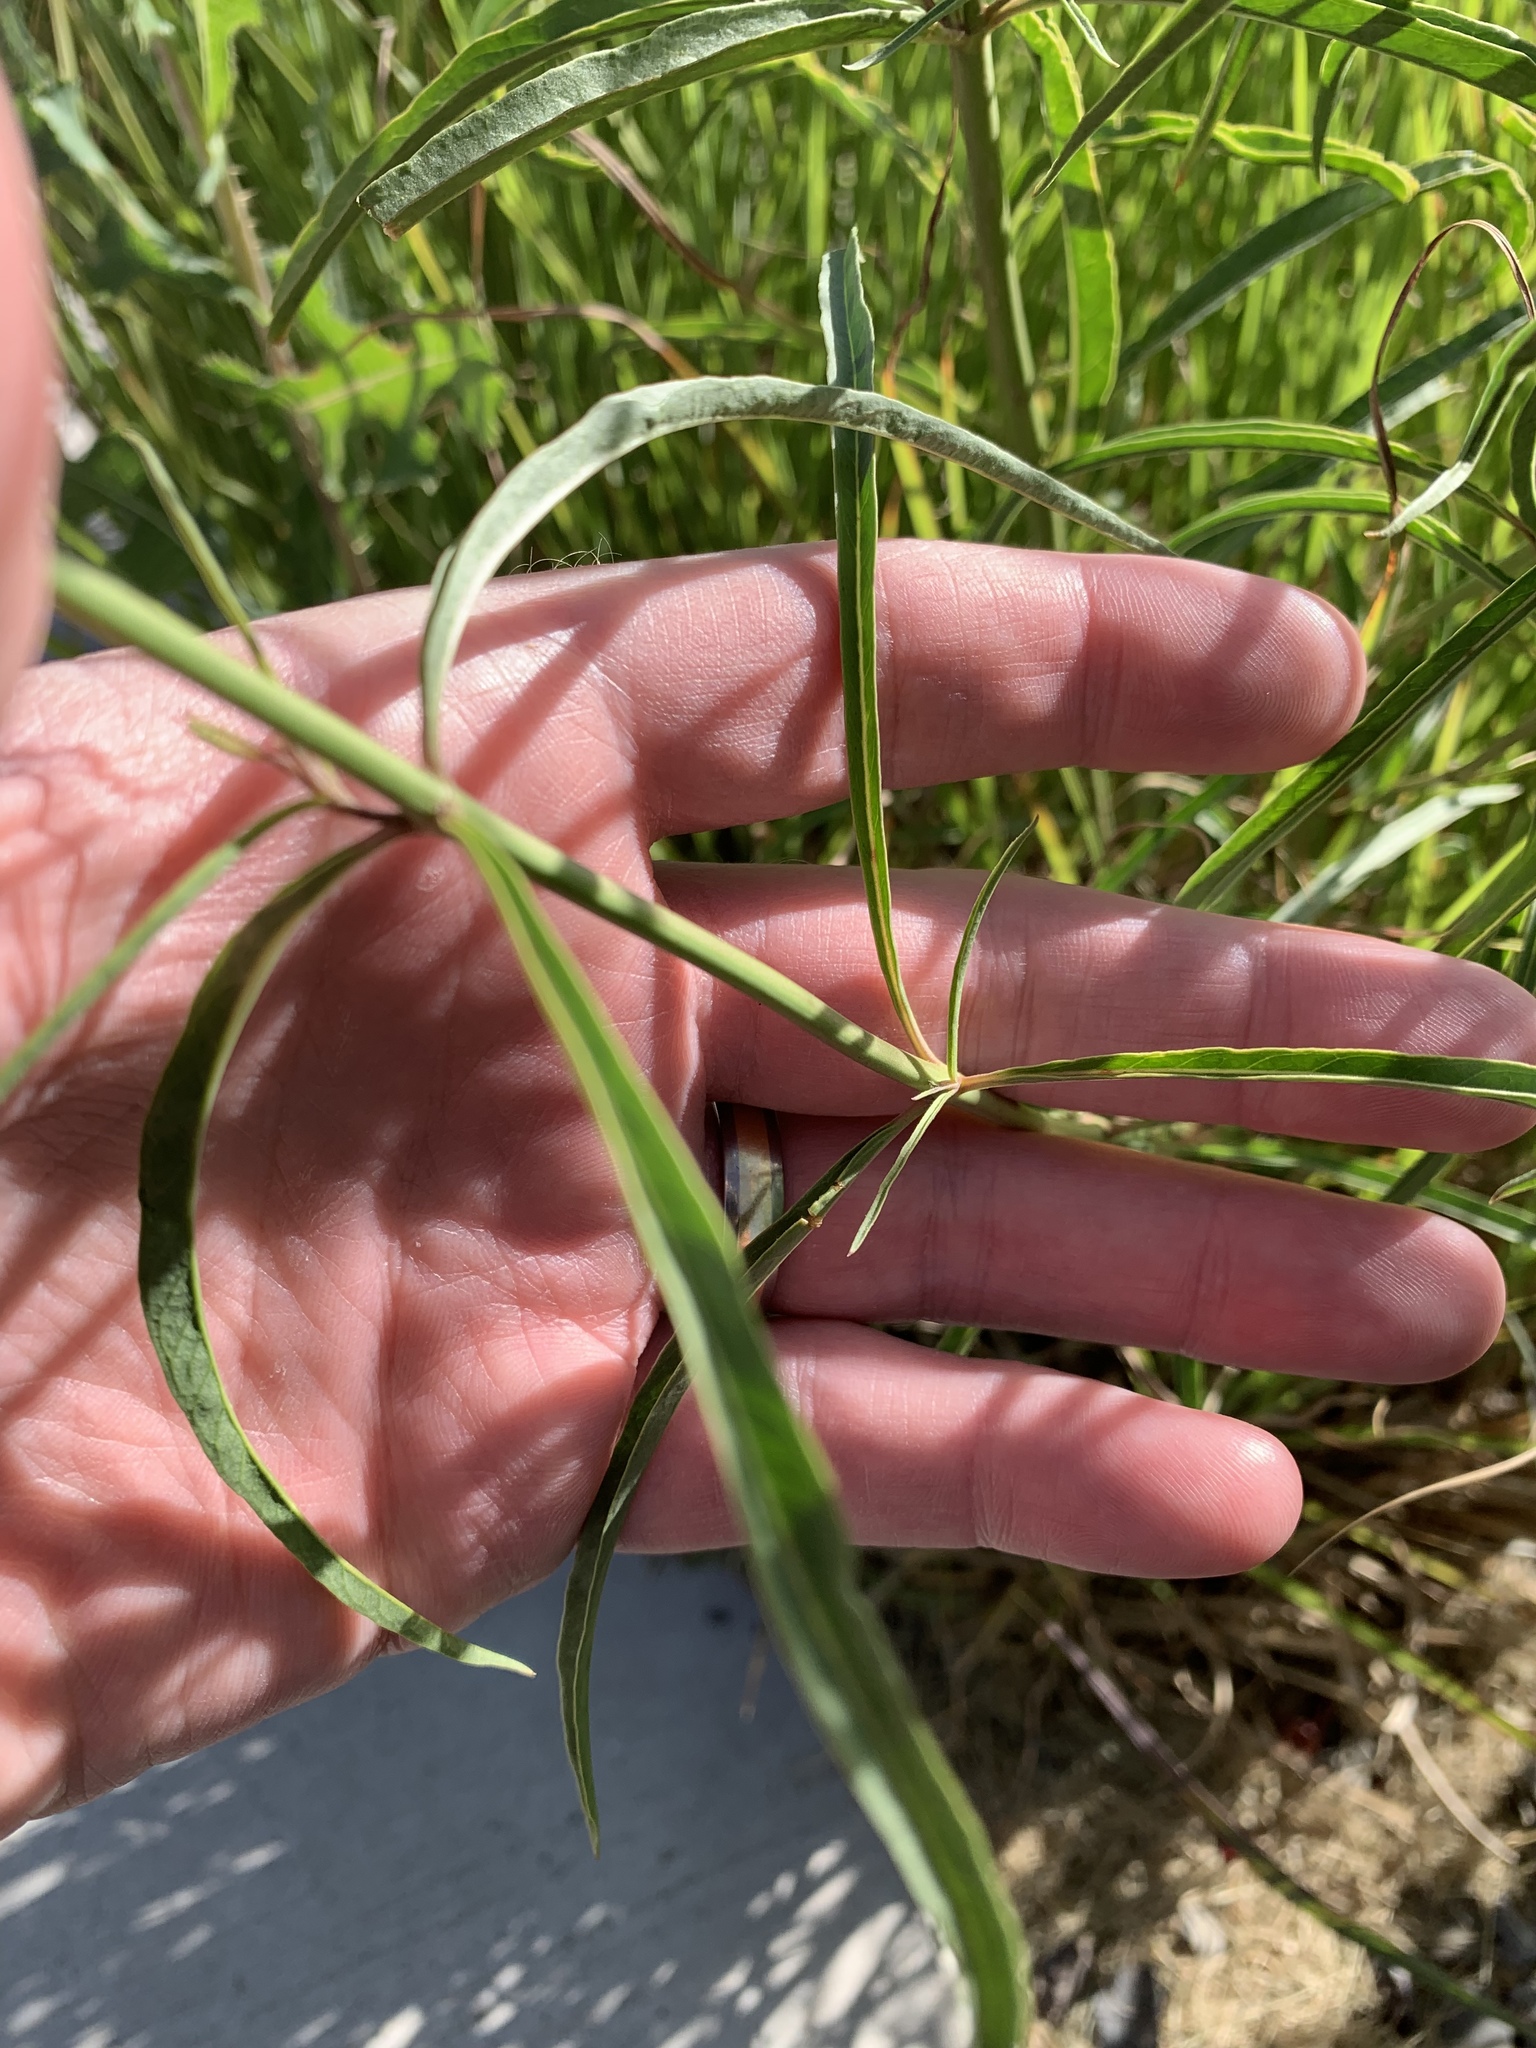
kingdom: Plantae
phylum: Tracheophyta
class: Magnoliopsida
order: Gentianales
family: Apocynaceae
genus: Asclepias
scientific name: Asclepias fascicularis
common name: Mexican milkweed
